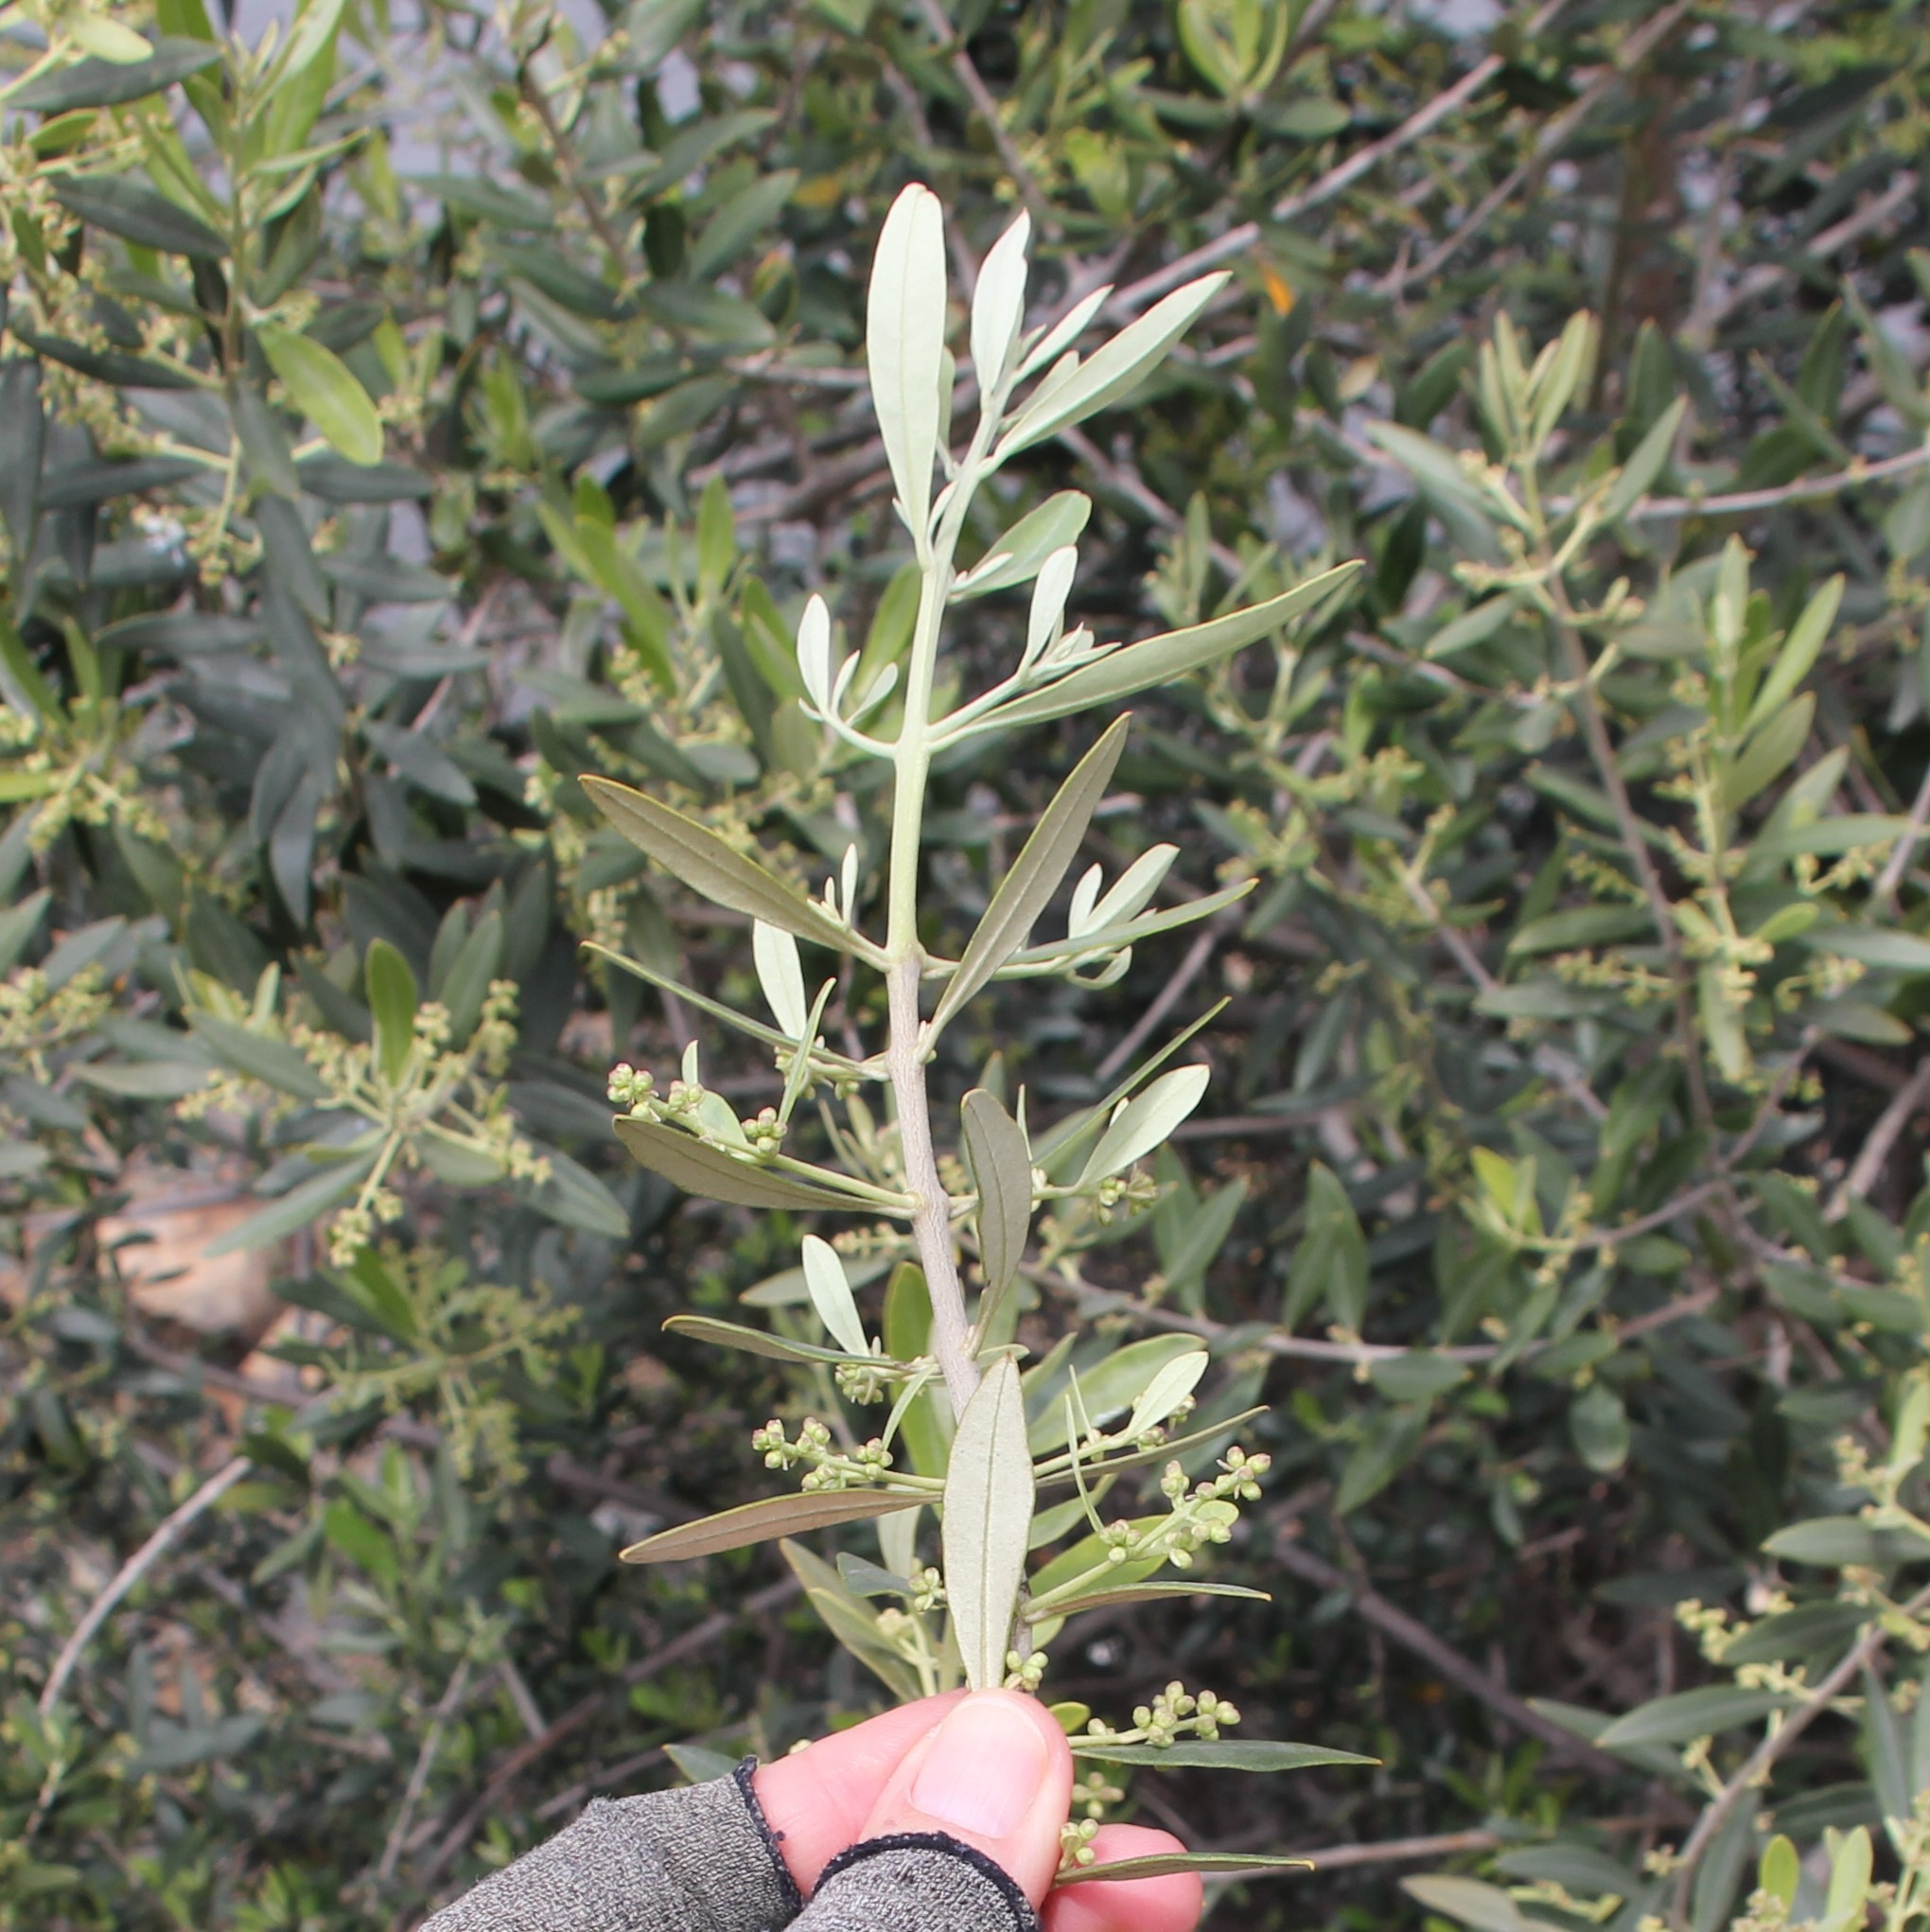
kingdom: Plantae
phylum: Tracheophyta
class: Magnoliopsida
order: Lamiales
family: Oleaceae
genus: Olea
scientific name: Olea europaea
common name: Olive
